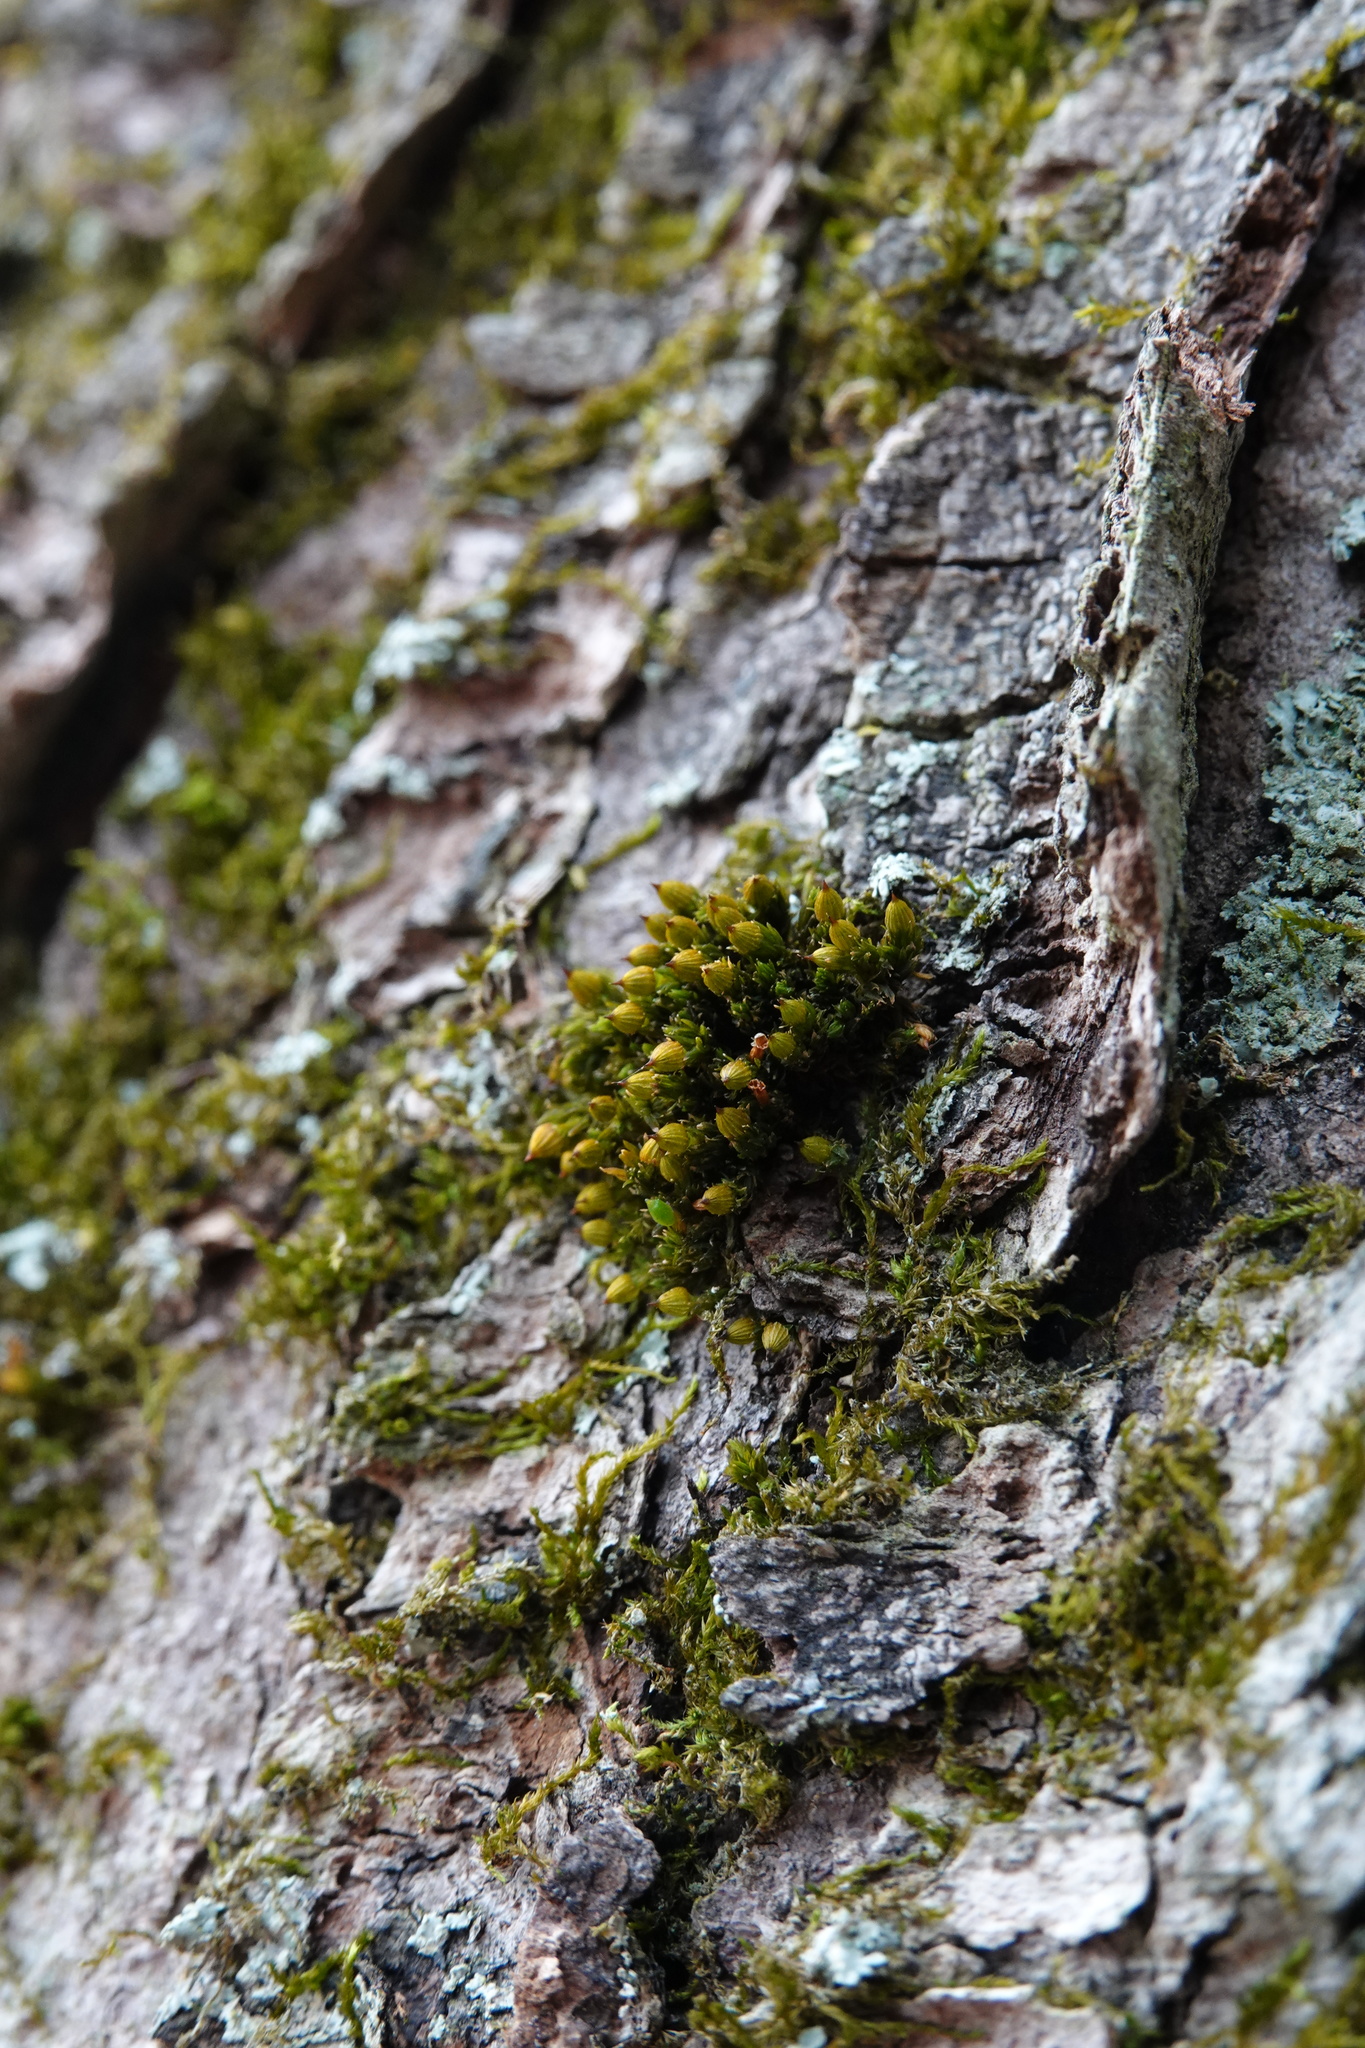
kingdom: Plantae
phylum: Bryophyta
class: Bryopsida
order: Orthotrichales
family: Orthotrichaceae
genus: Orthotrichum
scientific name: Orthotrichum stellatum
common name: Starlike bristle moss
